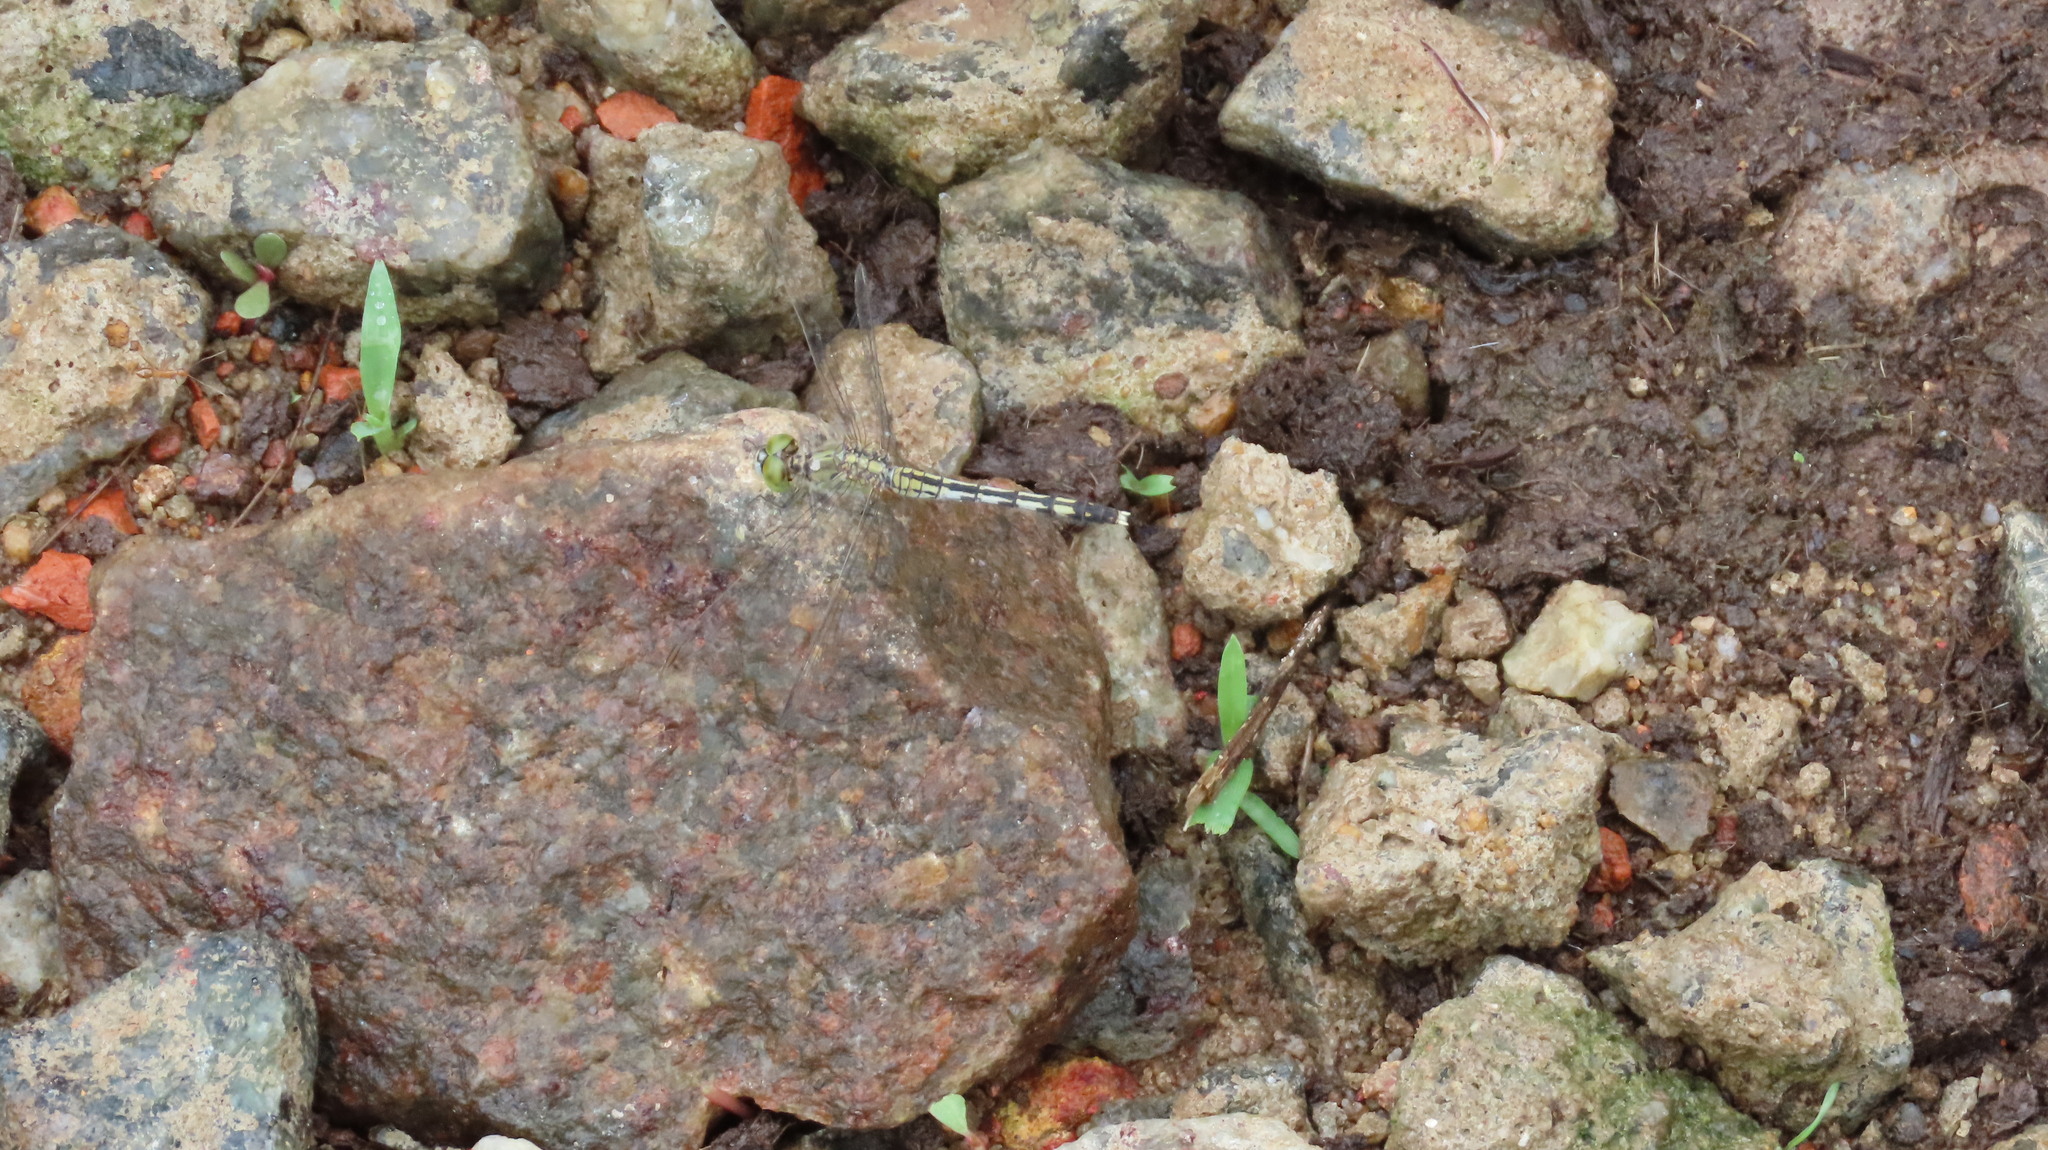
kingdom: Animalia
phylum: Arthropoda
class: Insecta
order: Odonata
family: Libellulidae
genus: Diplacodes
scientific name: Diplacodes trivialis
